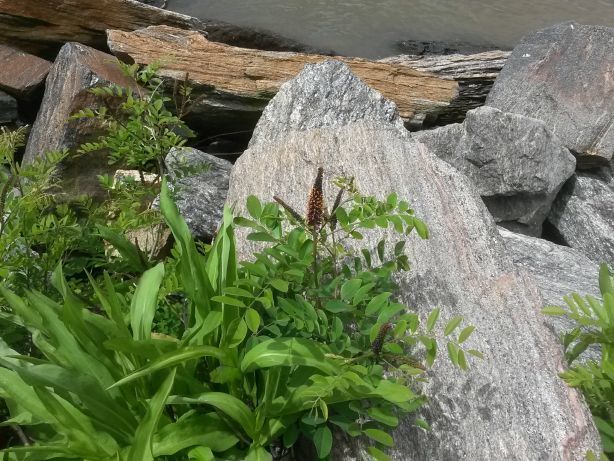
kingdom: Plantae
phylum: Tracheophyta
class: Magnoliopsida
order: Fabales
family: Fabaceae
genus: Amorpha
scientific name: Amorpha fruticosa
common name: False indigo
